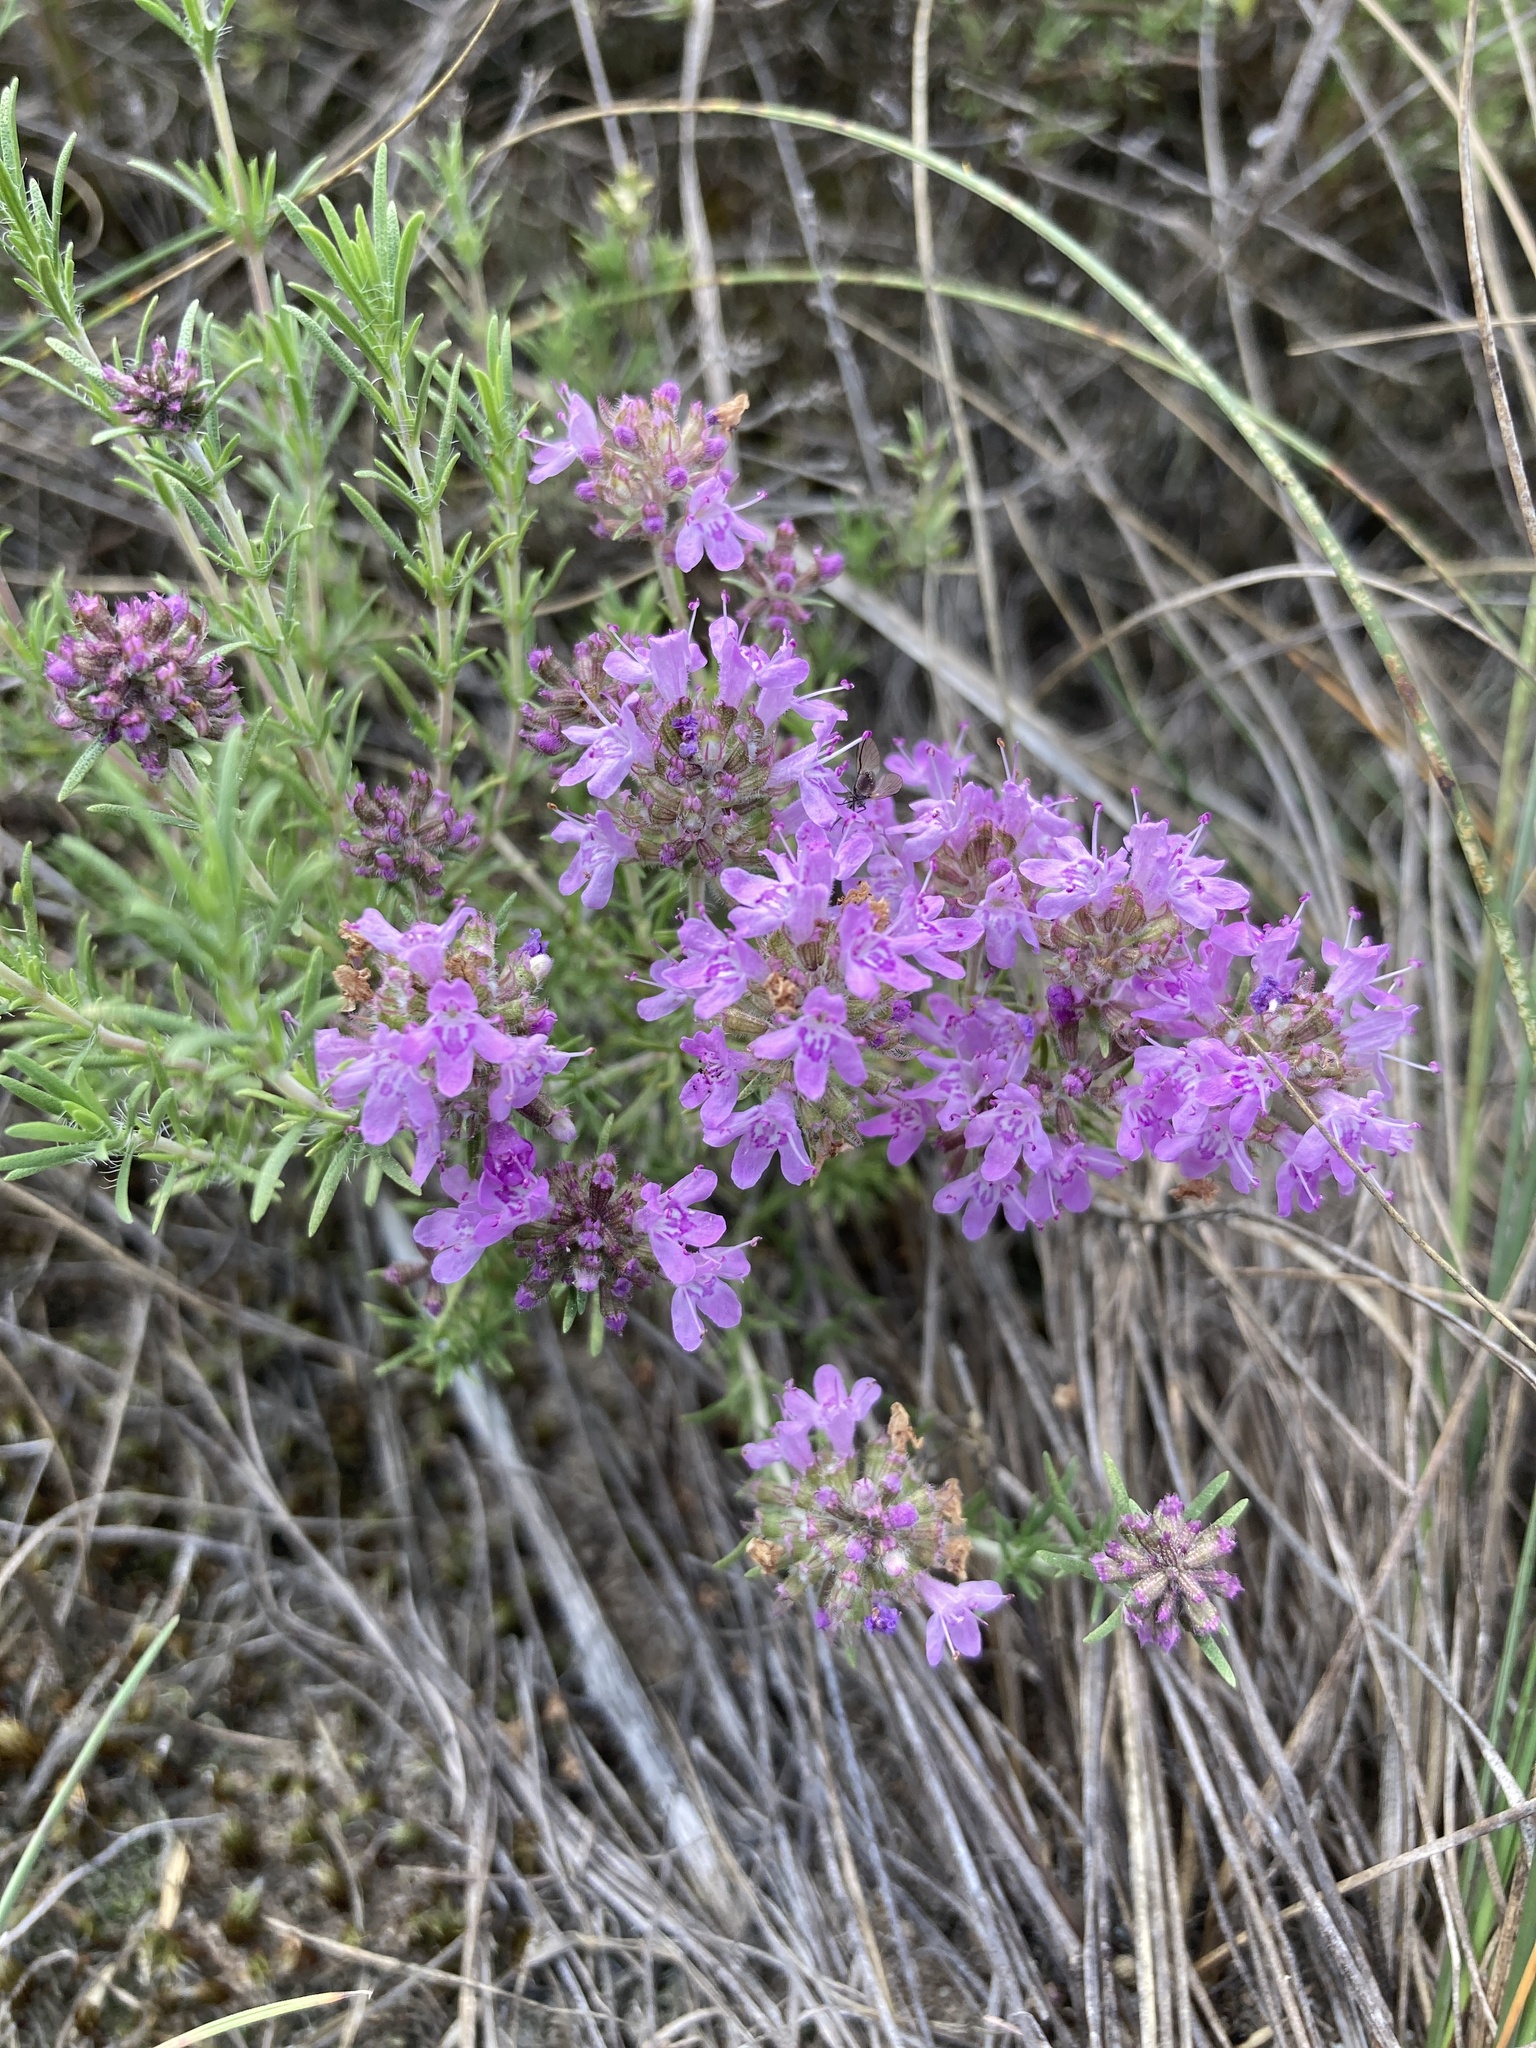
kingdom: Plantae
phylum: Tracheophyta
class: Magnoliopsida
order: Lamiales
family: Lamiaceae
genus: Thymus
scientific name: Thymus pallasianus
